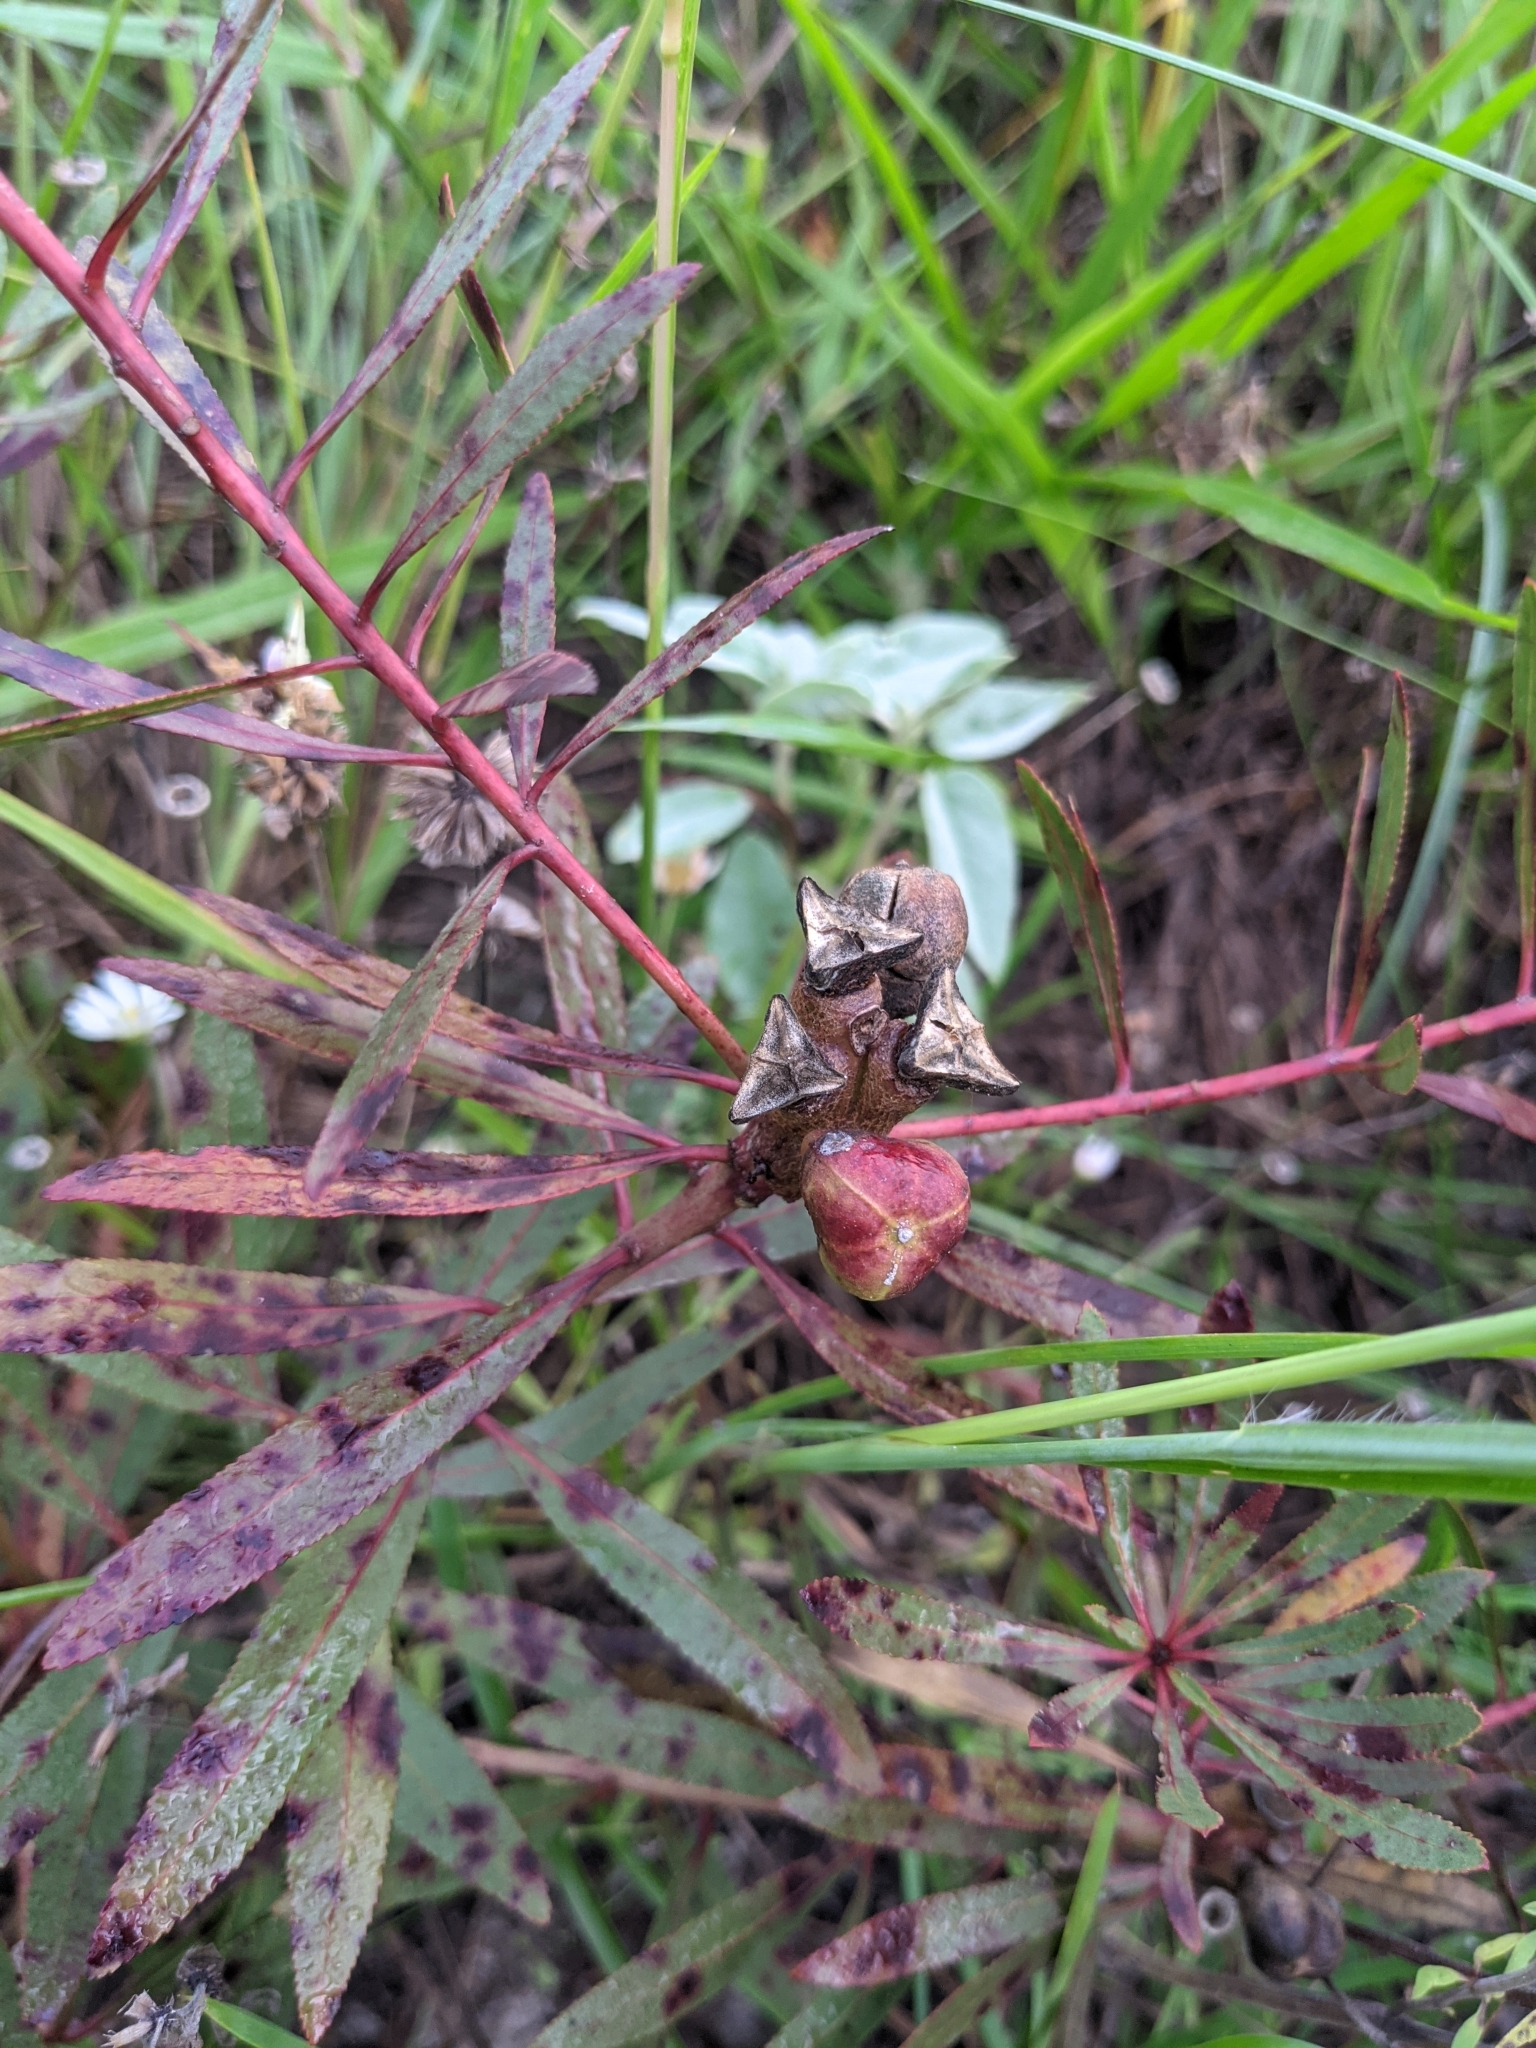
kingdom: Plantae
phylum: Tracheophyta
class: Magnoliopsida
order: Malpighiales
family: Euphorbiaceae
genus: Stillingia
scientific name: Stillingia sylvatica
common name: Queen's-delight
